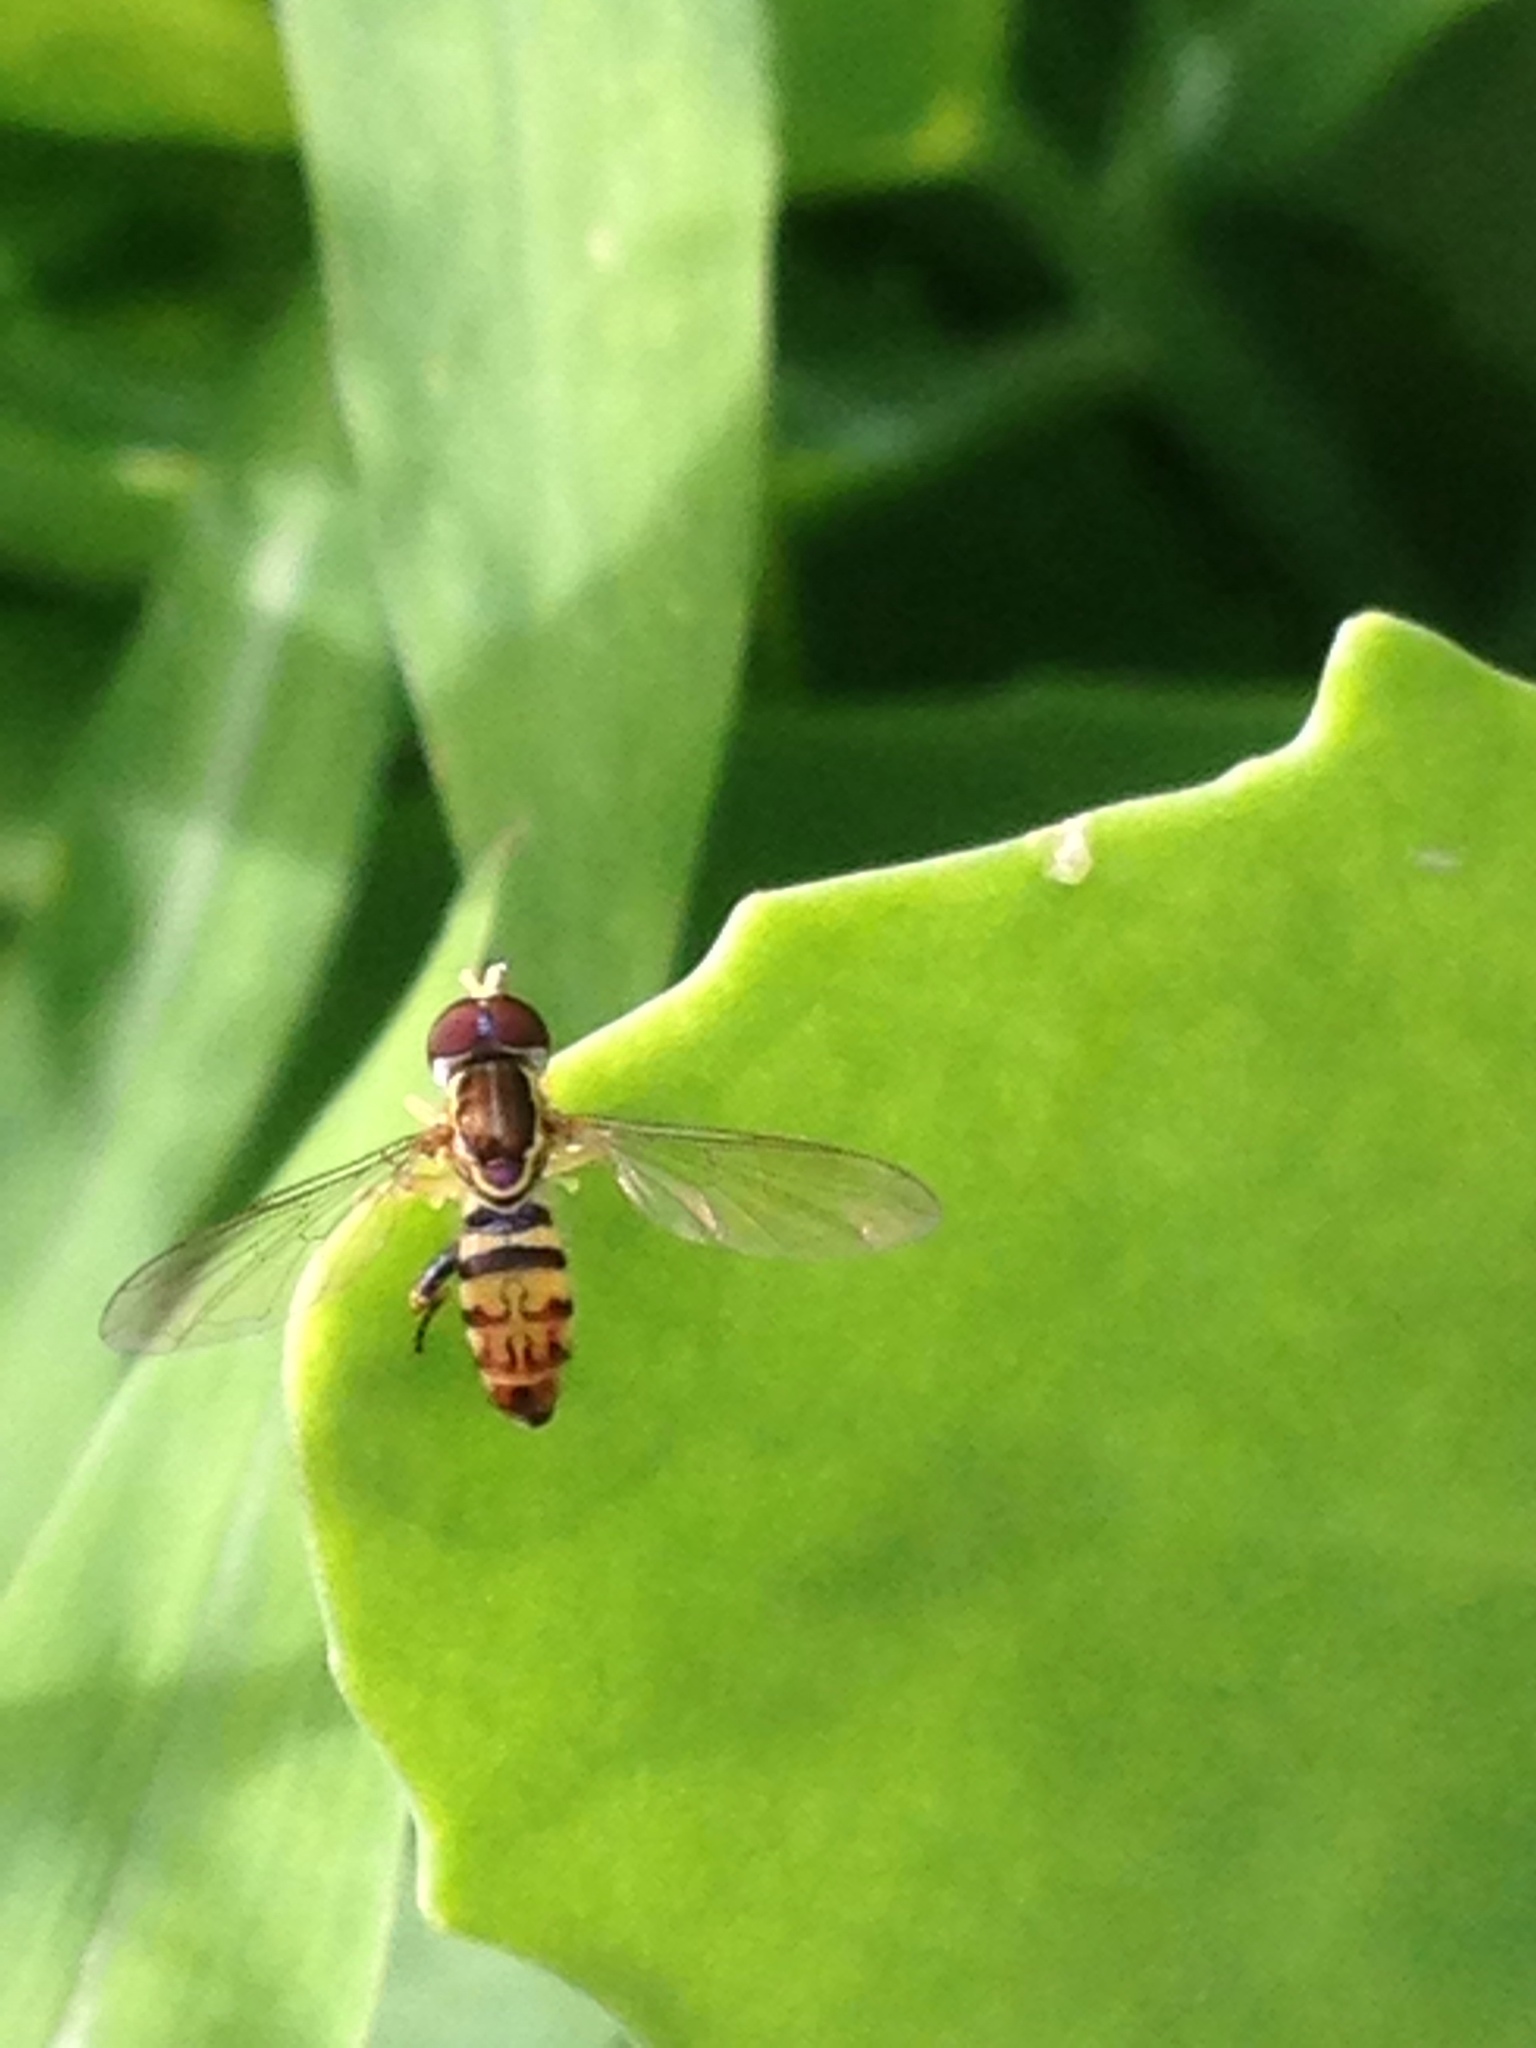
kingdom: Animalia
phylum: Arthropoda
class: Insecta
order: Diptera
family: Syrphidae
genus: Toxomerus
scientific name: Toxomerus geminatus
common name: Eastern calligrapher
